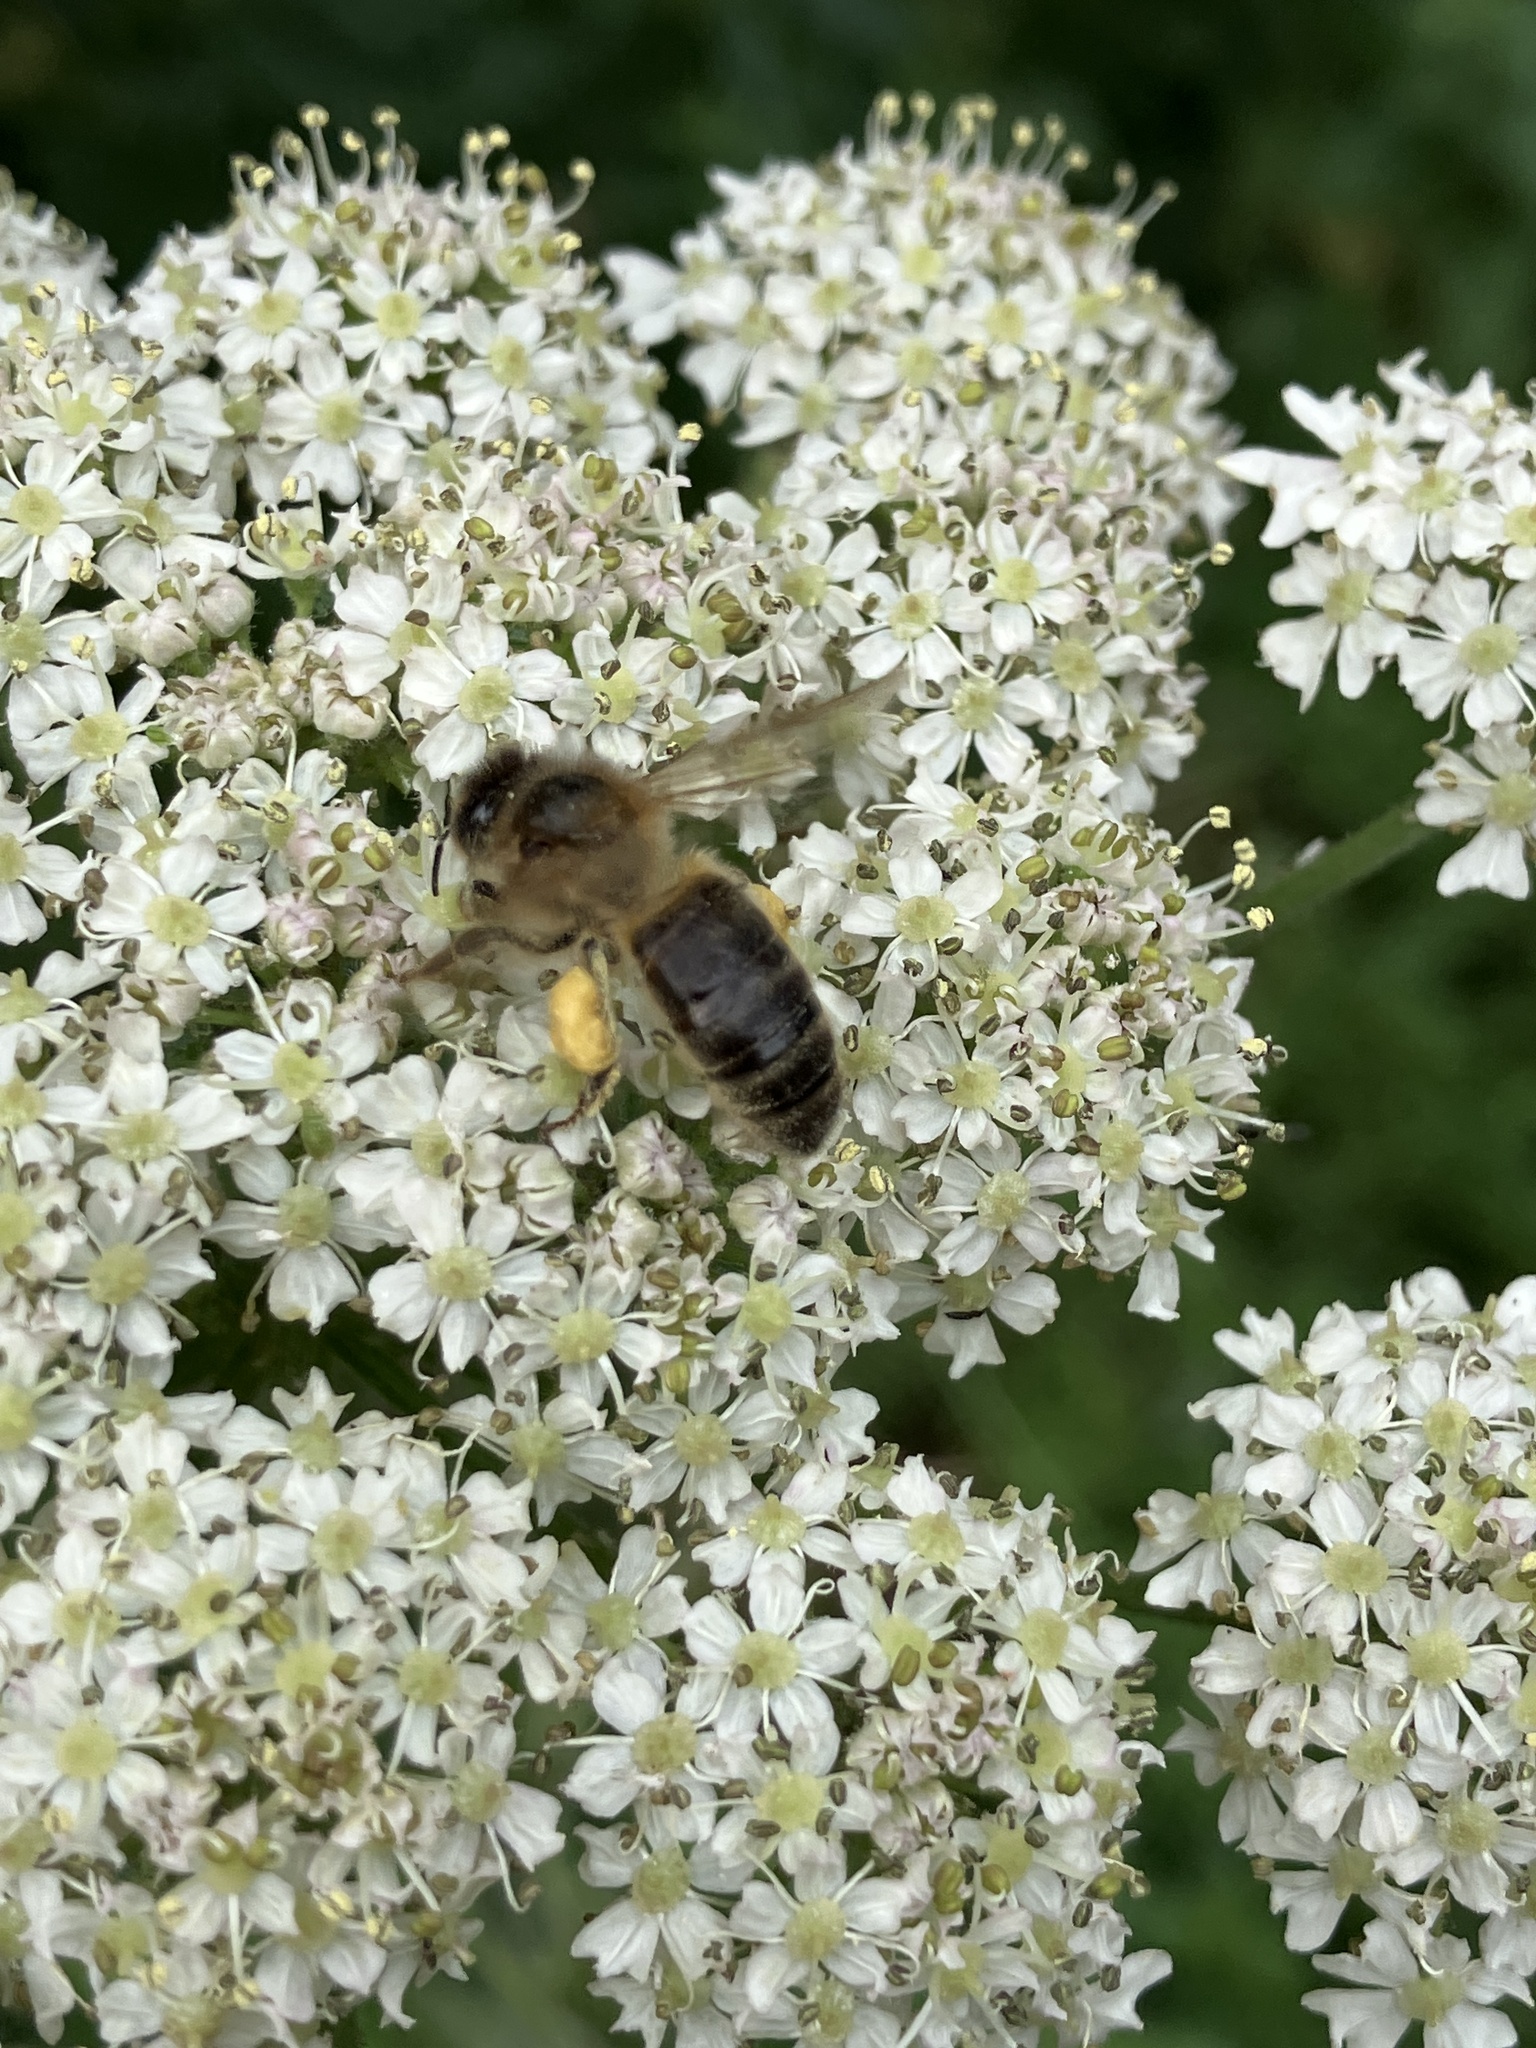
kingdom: Animalia
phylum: Arthropoda
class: Insecta
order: Hymenoptera
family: Apidae
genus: Apis
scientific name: Apis mellifera
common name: Honey bee
